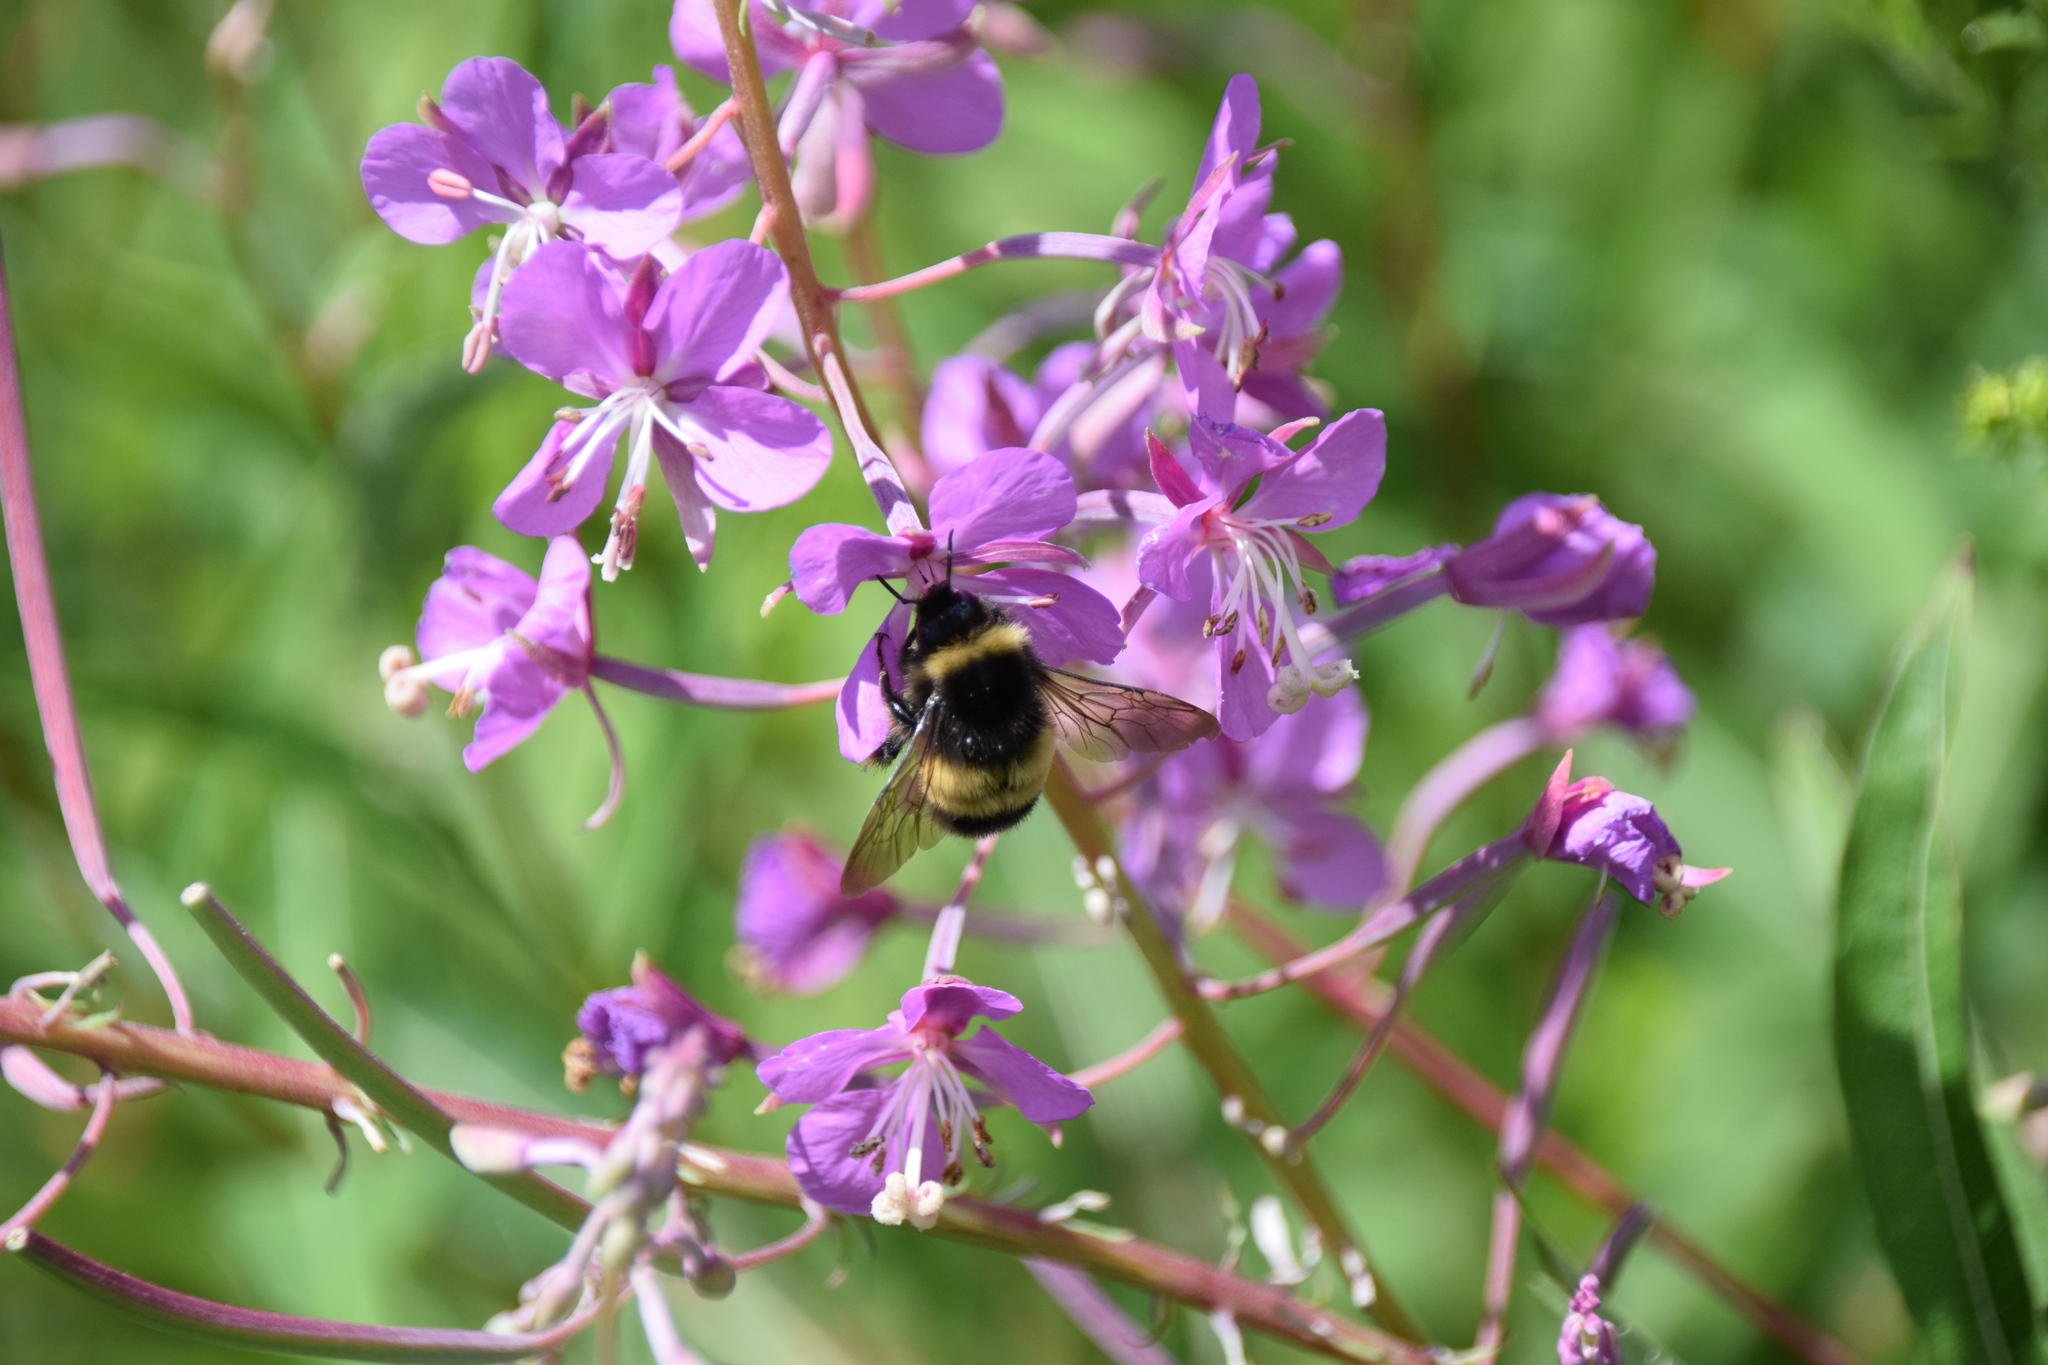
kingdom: Animalia
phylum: Arthropoda
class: Insecta
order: Hymenoptera
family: Apidae
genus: Bombus
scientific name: Bombus terricola
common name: Yellow-banded bumble bee
